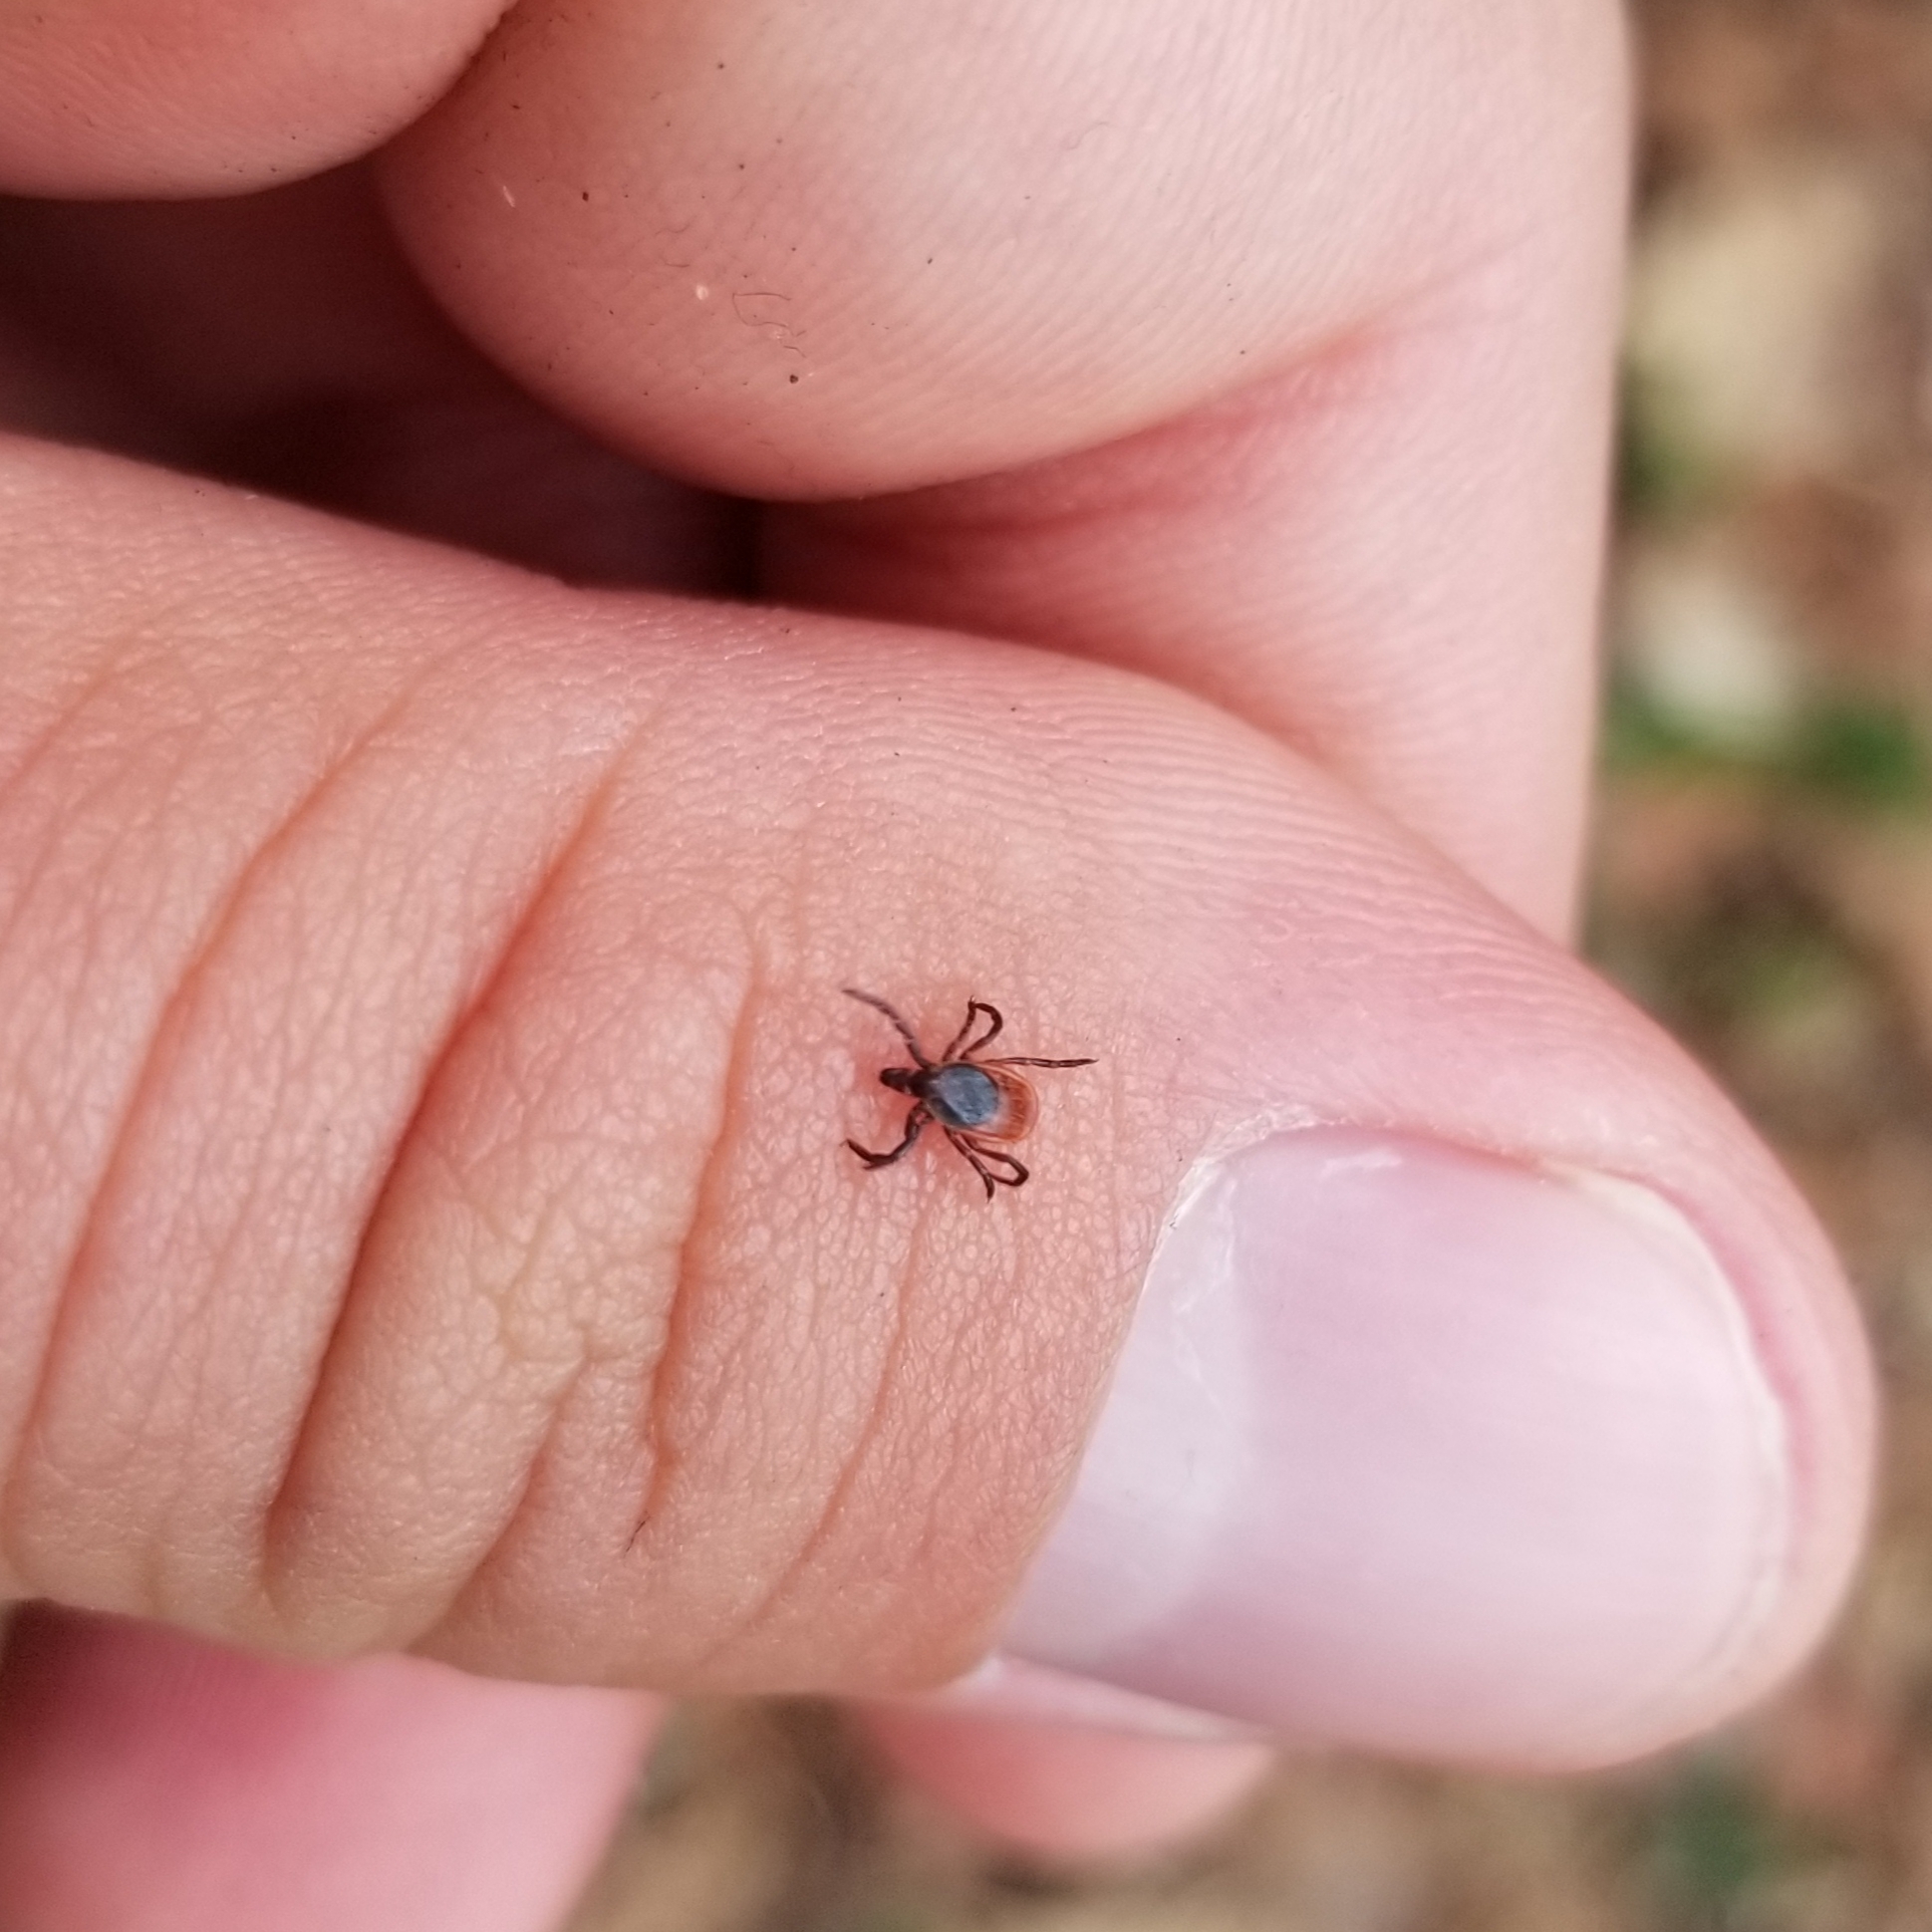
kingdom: Animalia
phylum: Arthropoda
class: Arachnida
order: Ixodida
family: Ixodidae
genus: Ixodes
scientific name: Ixodes scapularis
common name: Black legged tick
